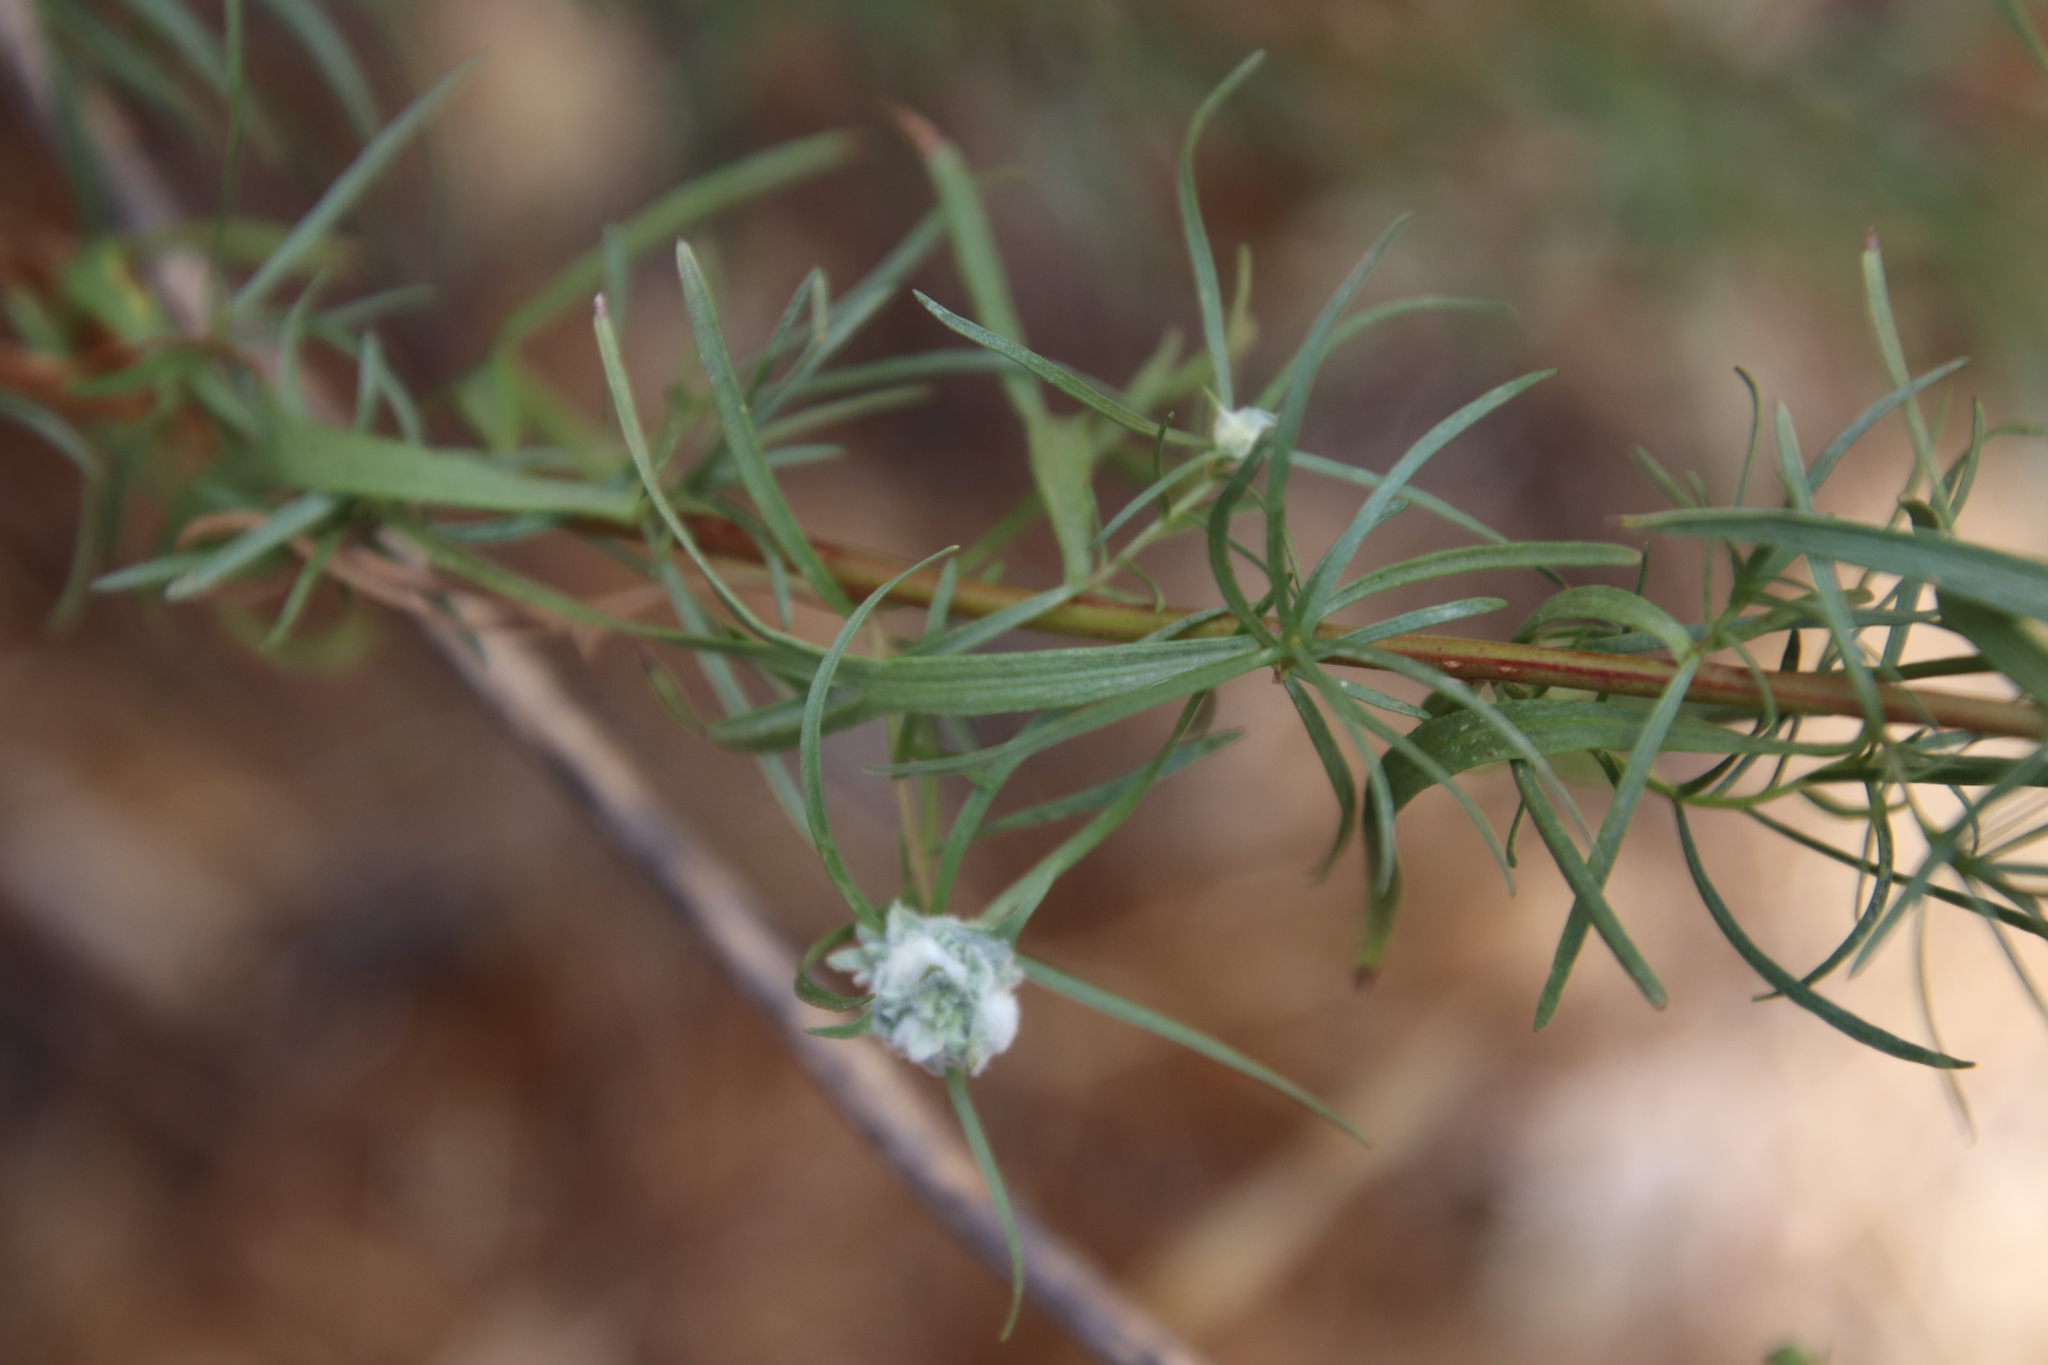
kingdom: Plantae
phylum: Tracheophyta
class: Magnoliopsida
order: Asterales
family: Asteraceae
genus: Artemisia
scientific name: Artemisia dracunculus
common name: Tarragon
